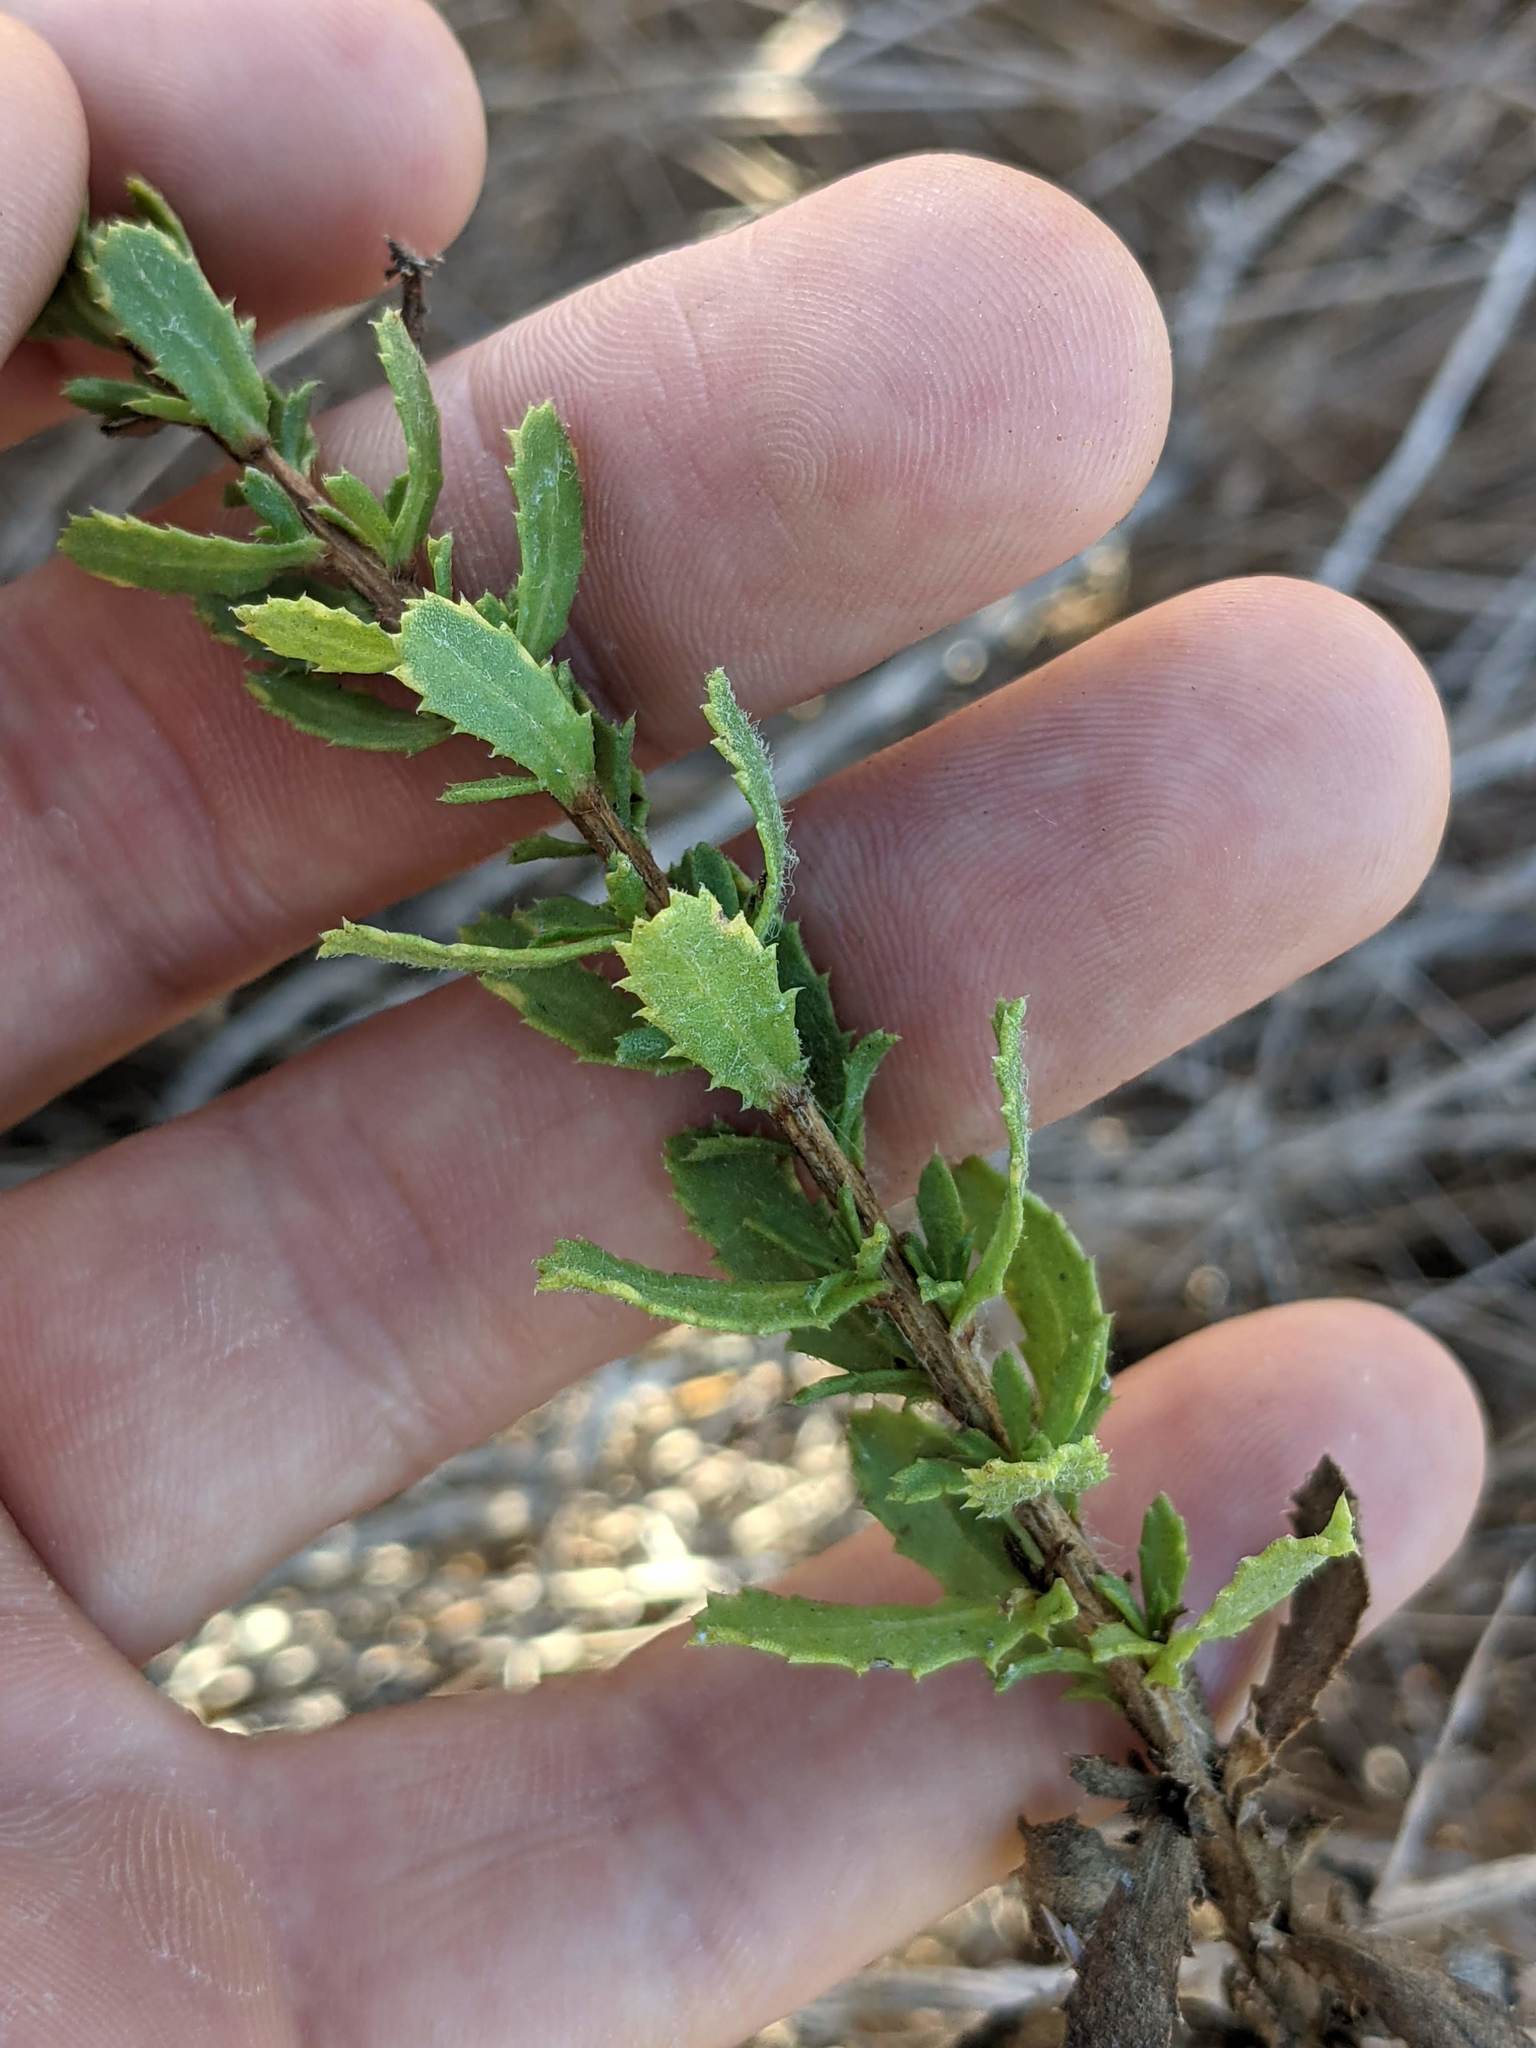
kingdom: Plantae
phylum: Tracheophyta
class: Magnoliopsida
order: Asterales
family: Asteraceae
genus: Isocoma
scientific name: Isocoma menziesii
